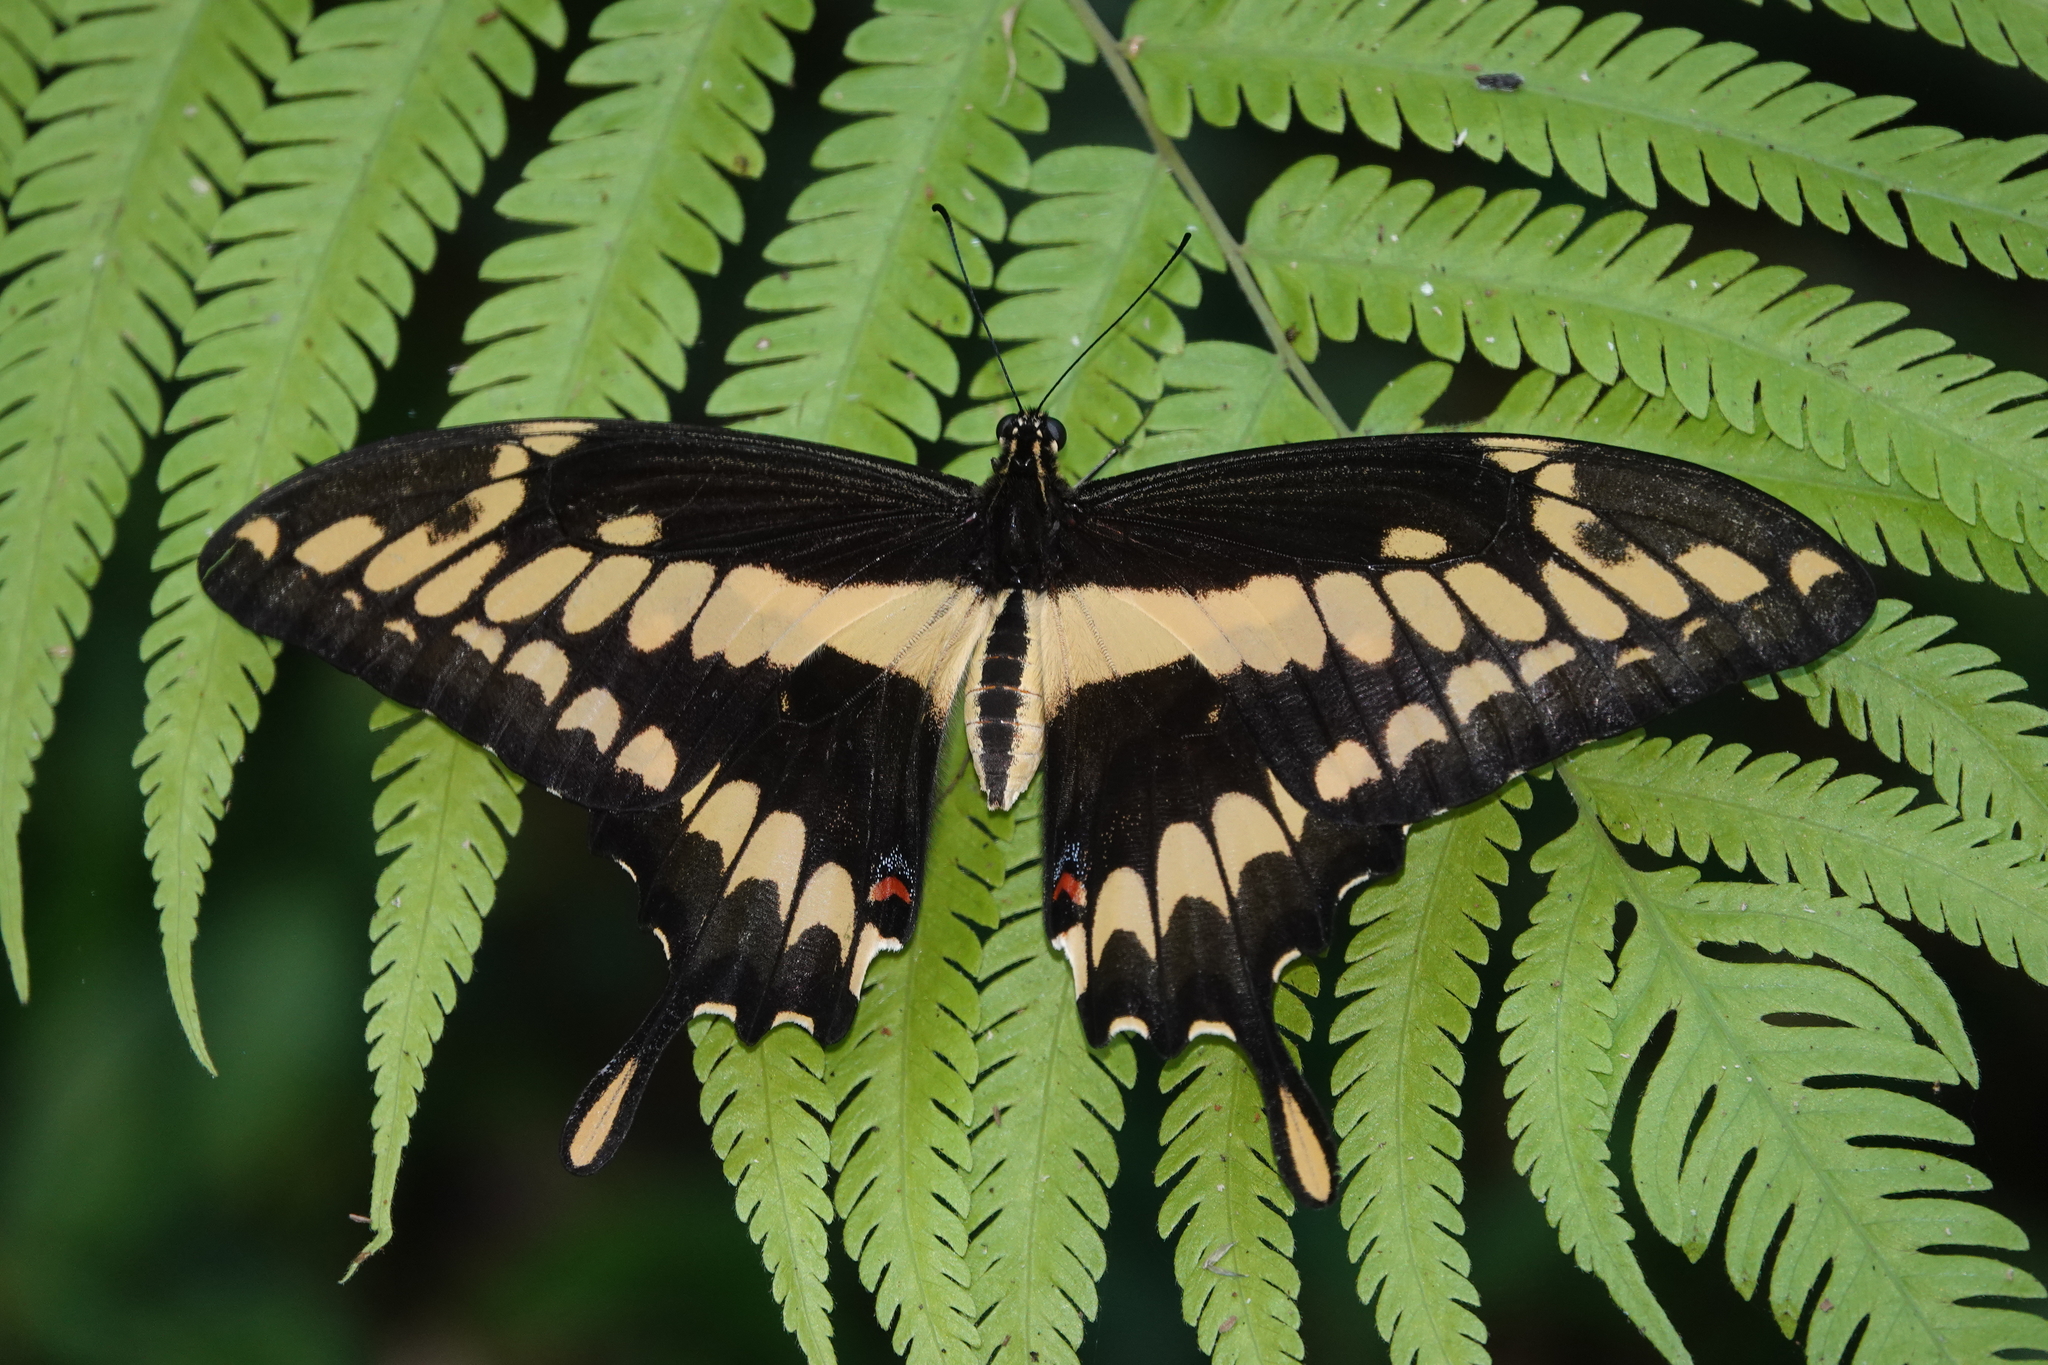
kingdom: Animalia
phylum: Arthropoda
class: Insecta
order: Lepidoptera
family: Papilionidae
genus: Papilio
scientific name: Papilio thoas
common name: King swallowtail
